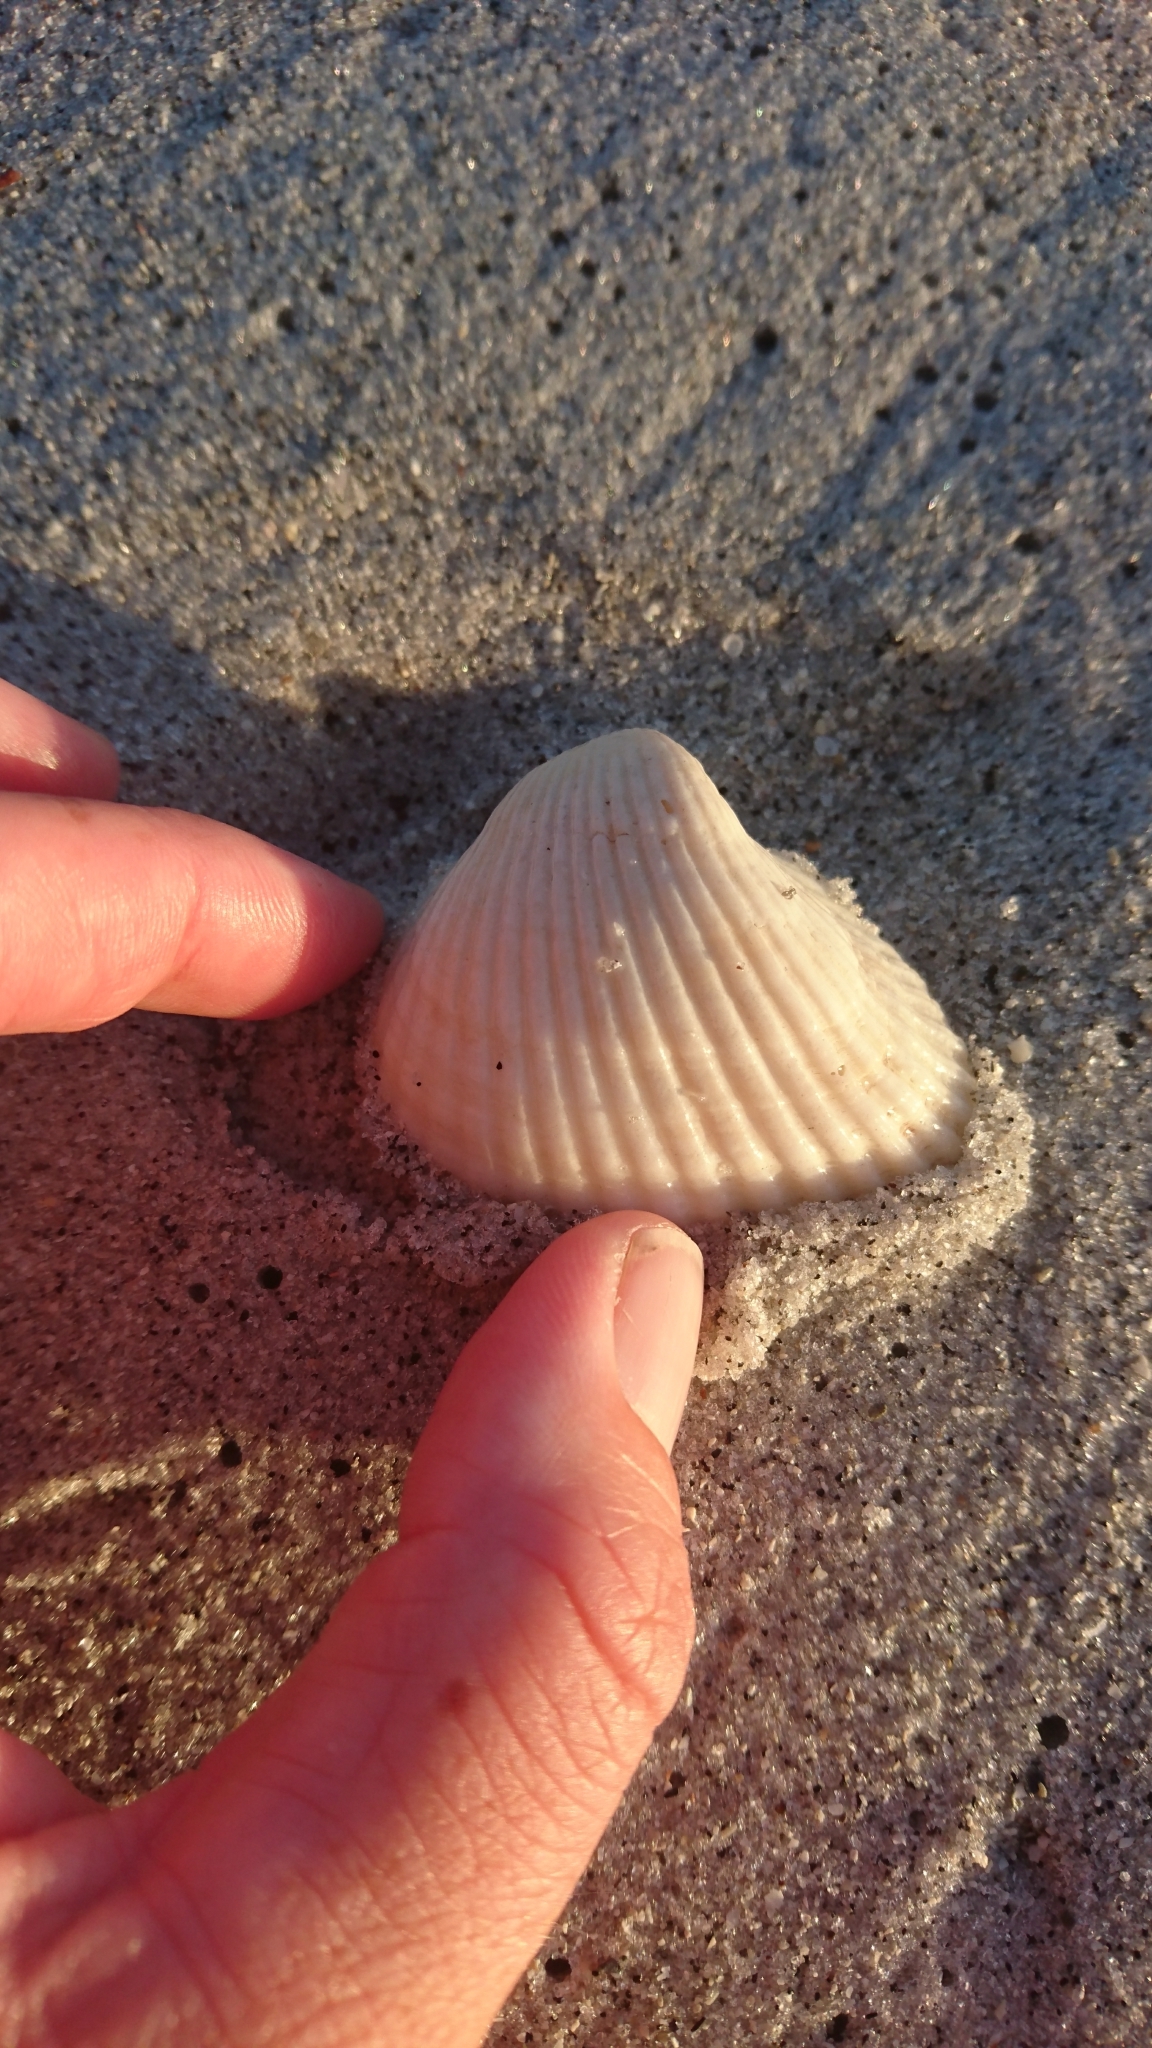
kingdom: Animalia
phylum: Mollusca
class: Bivalvia
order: Arcida
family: Noetiidae
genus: Noetia
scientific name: Noetia ponderosa
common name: Ponderous ark
